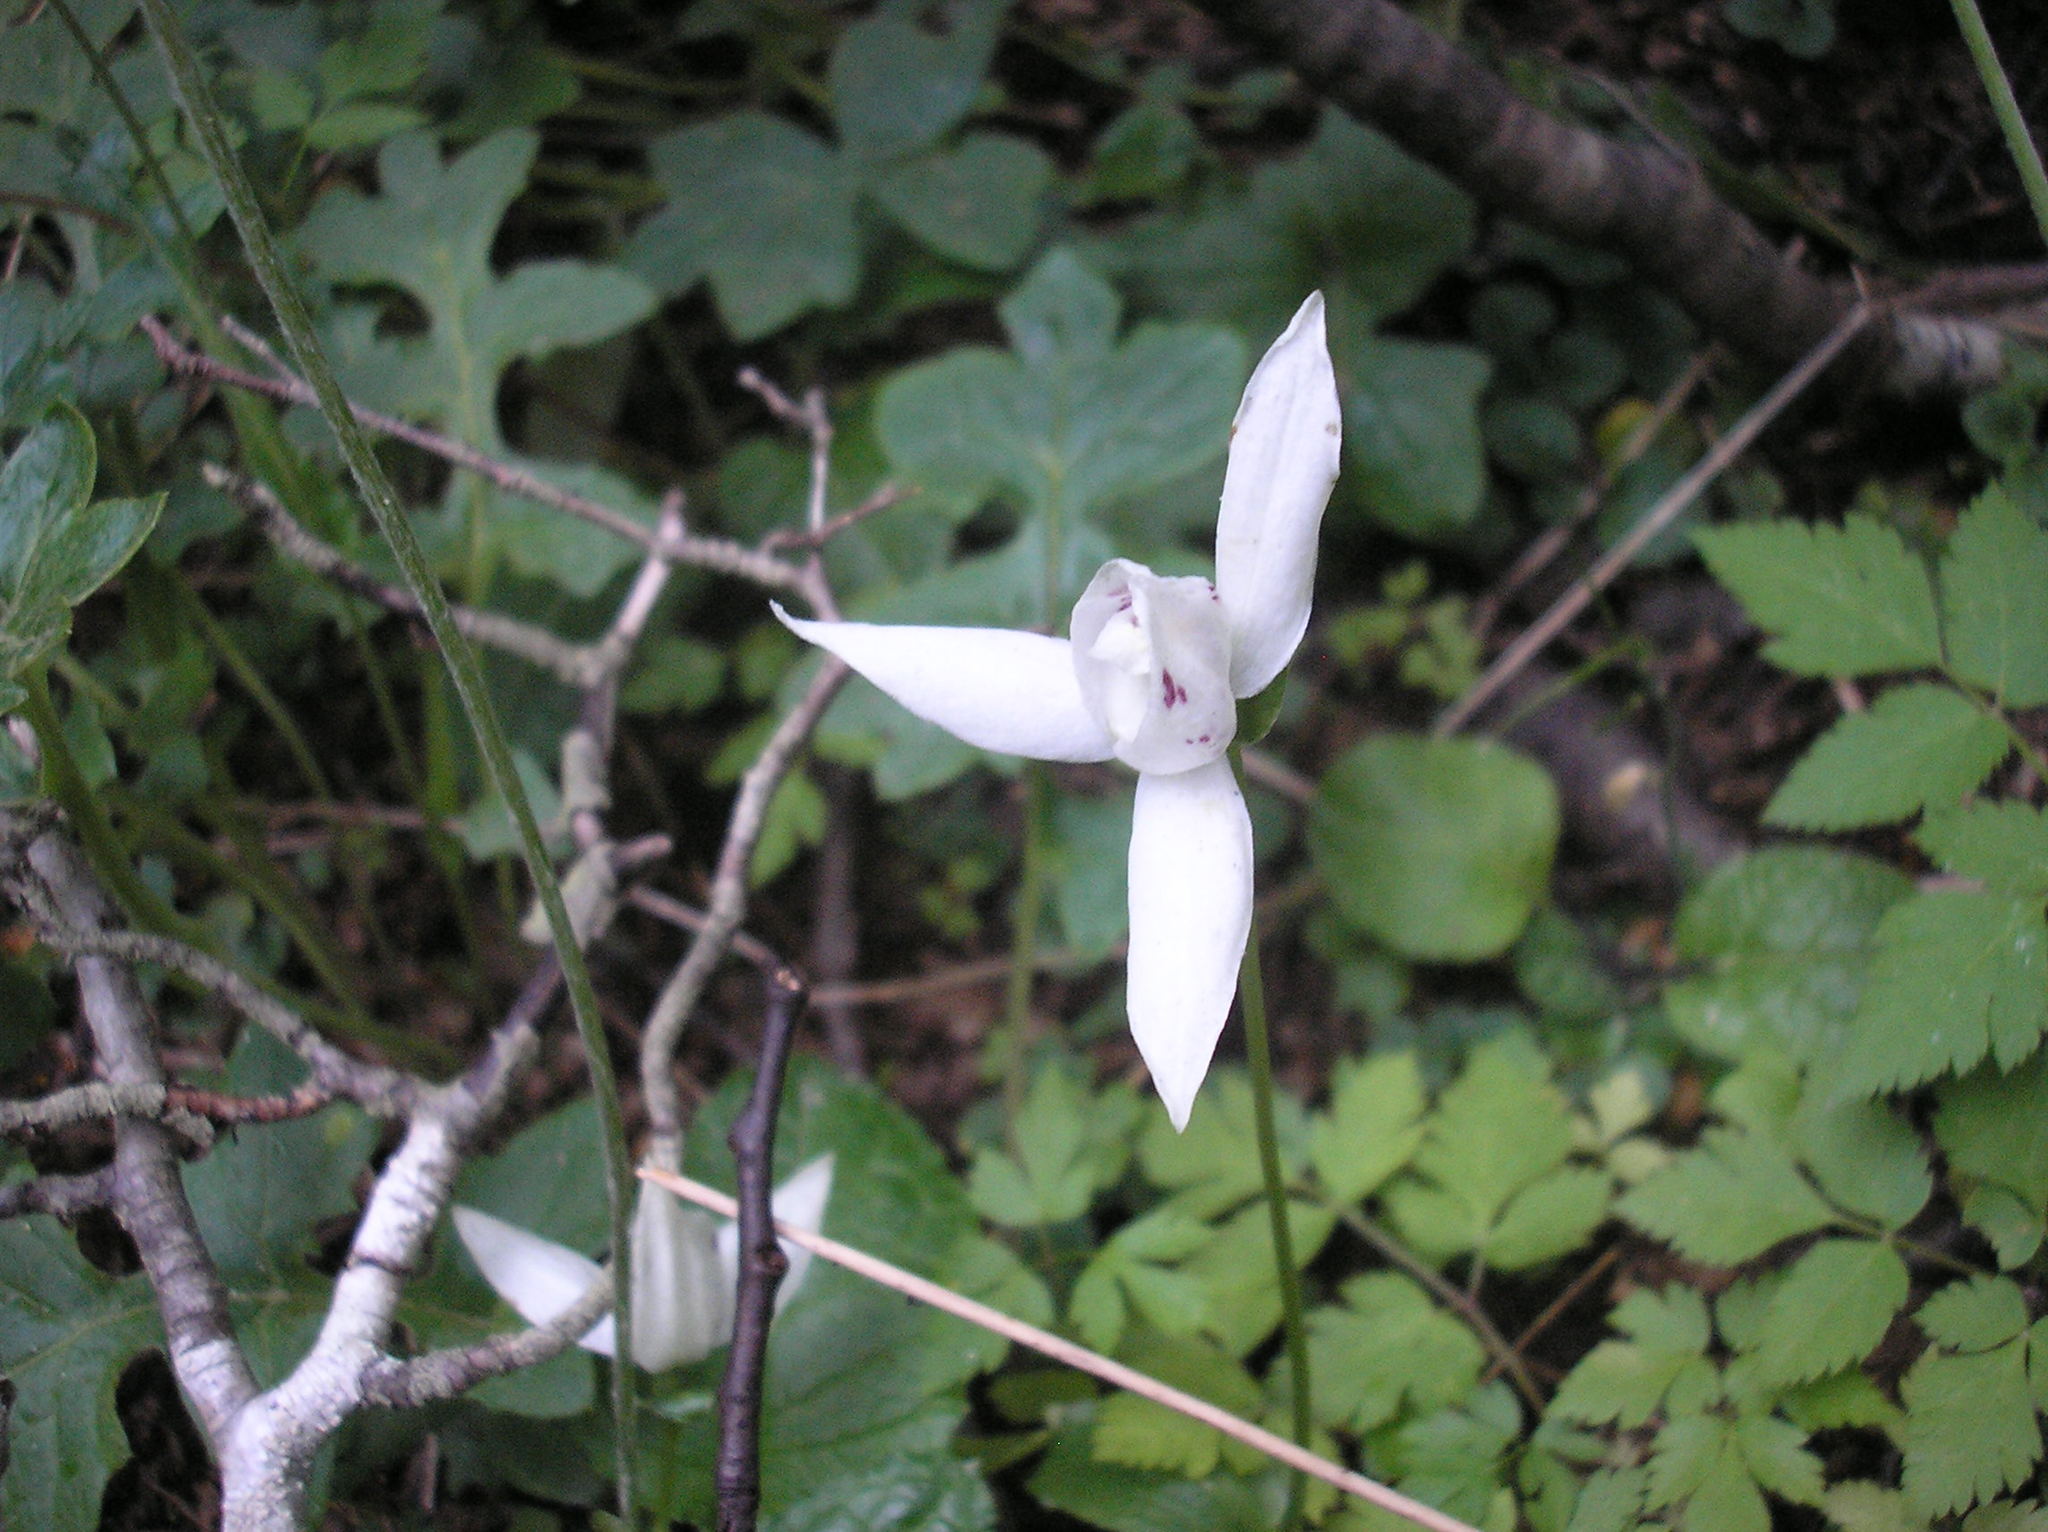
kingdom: Plantae
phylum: Tracheophyta
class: Liliopsida
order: Asparagales
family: Orchidaceae
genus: Codonorchis
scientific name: Codonorchis lessonii
